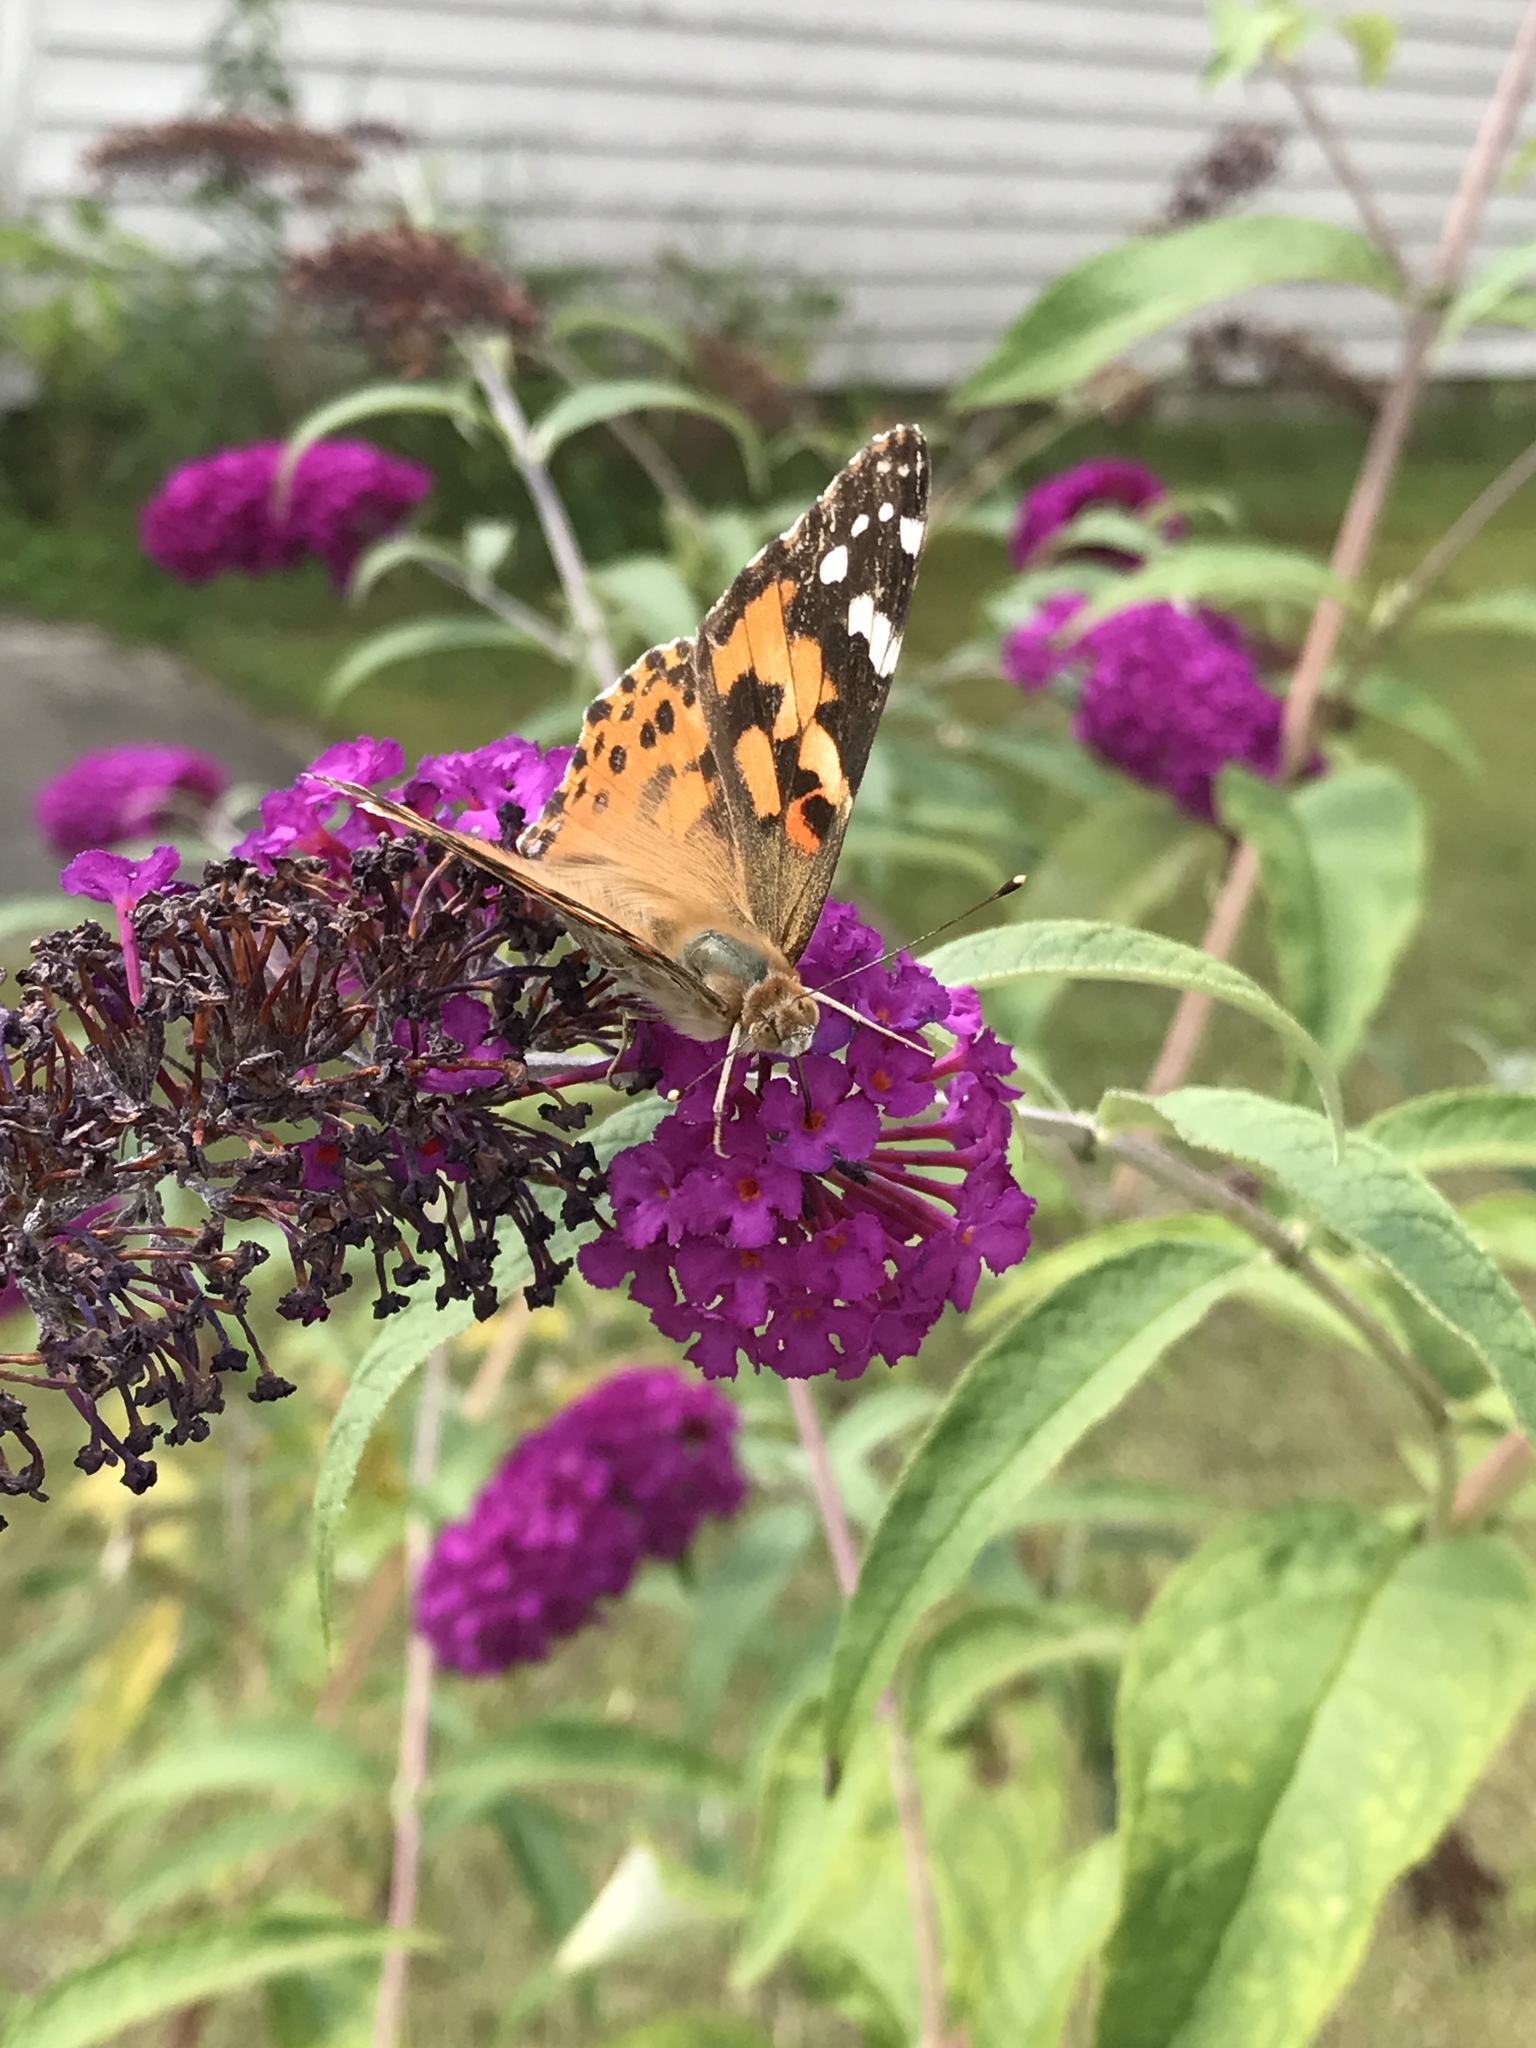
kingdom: Animalia
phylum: Arthropoda
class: Insecta
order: Lepidoptera
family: Nymphalidae
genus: Vanessa
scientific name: Vanessa cardui
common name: Painted lady
